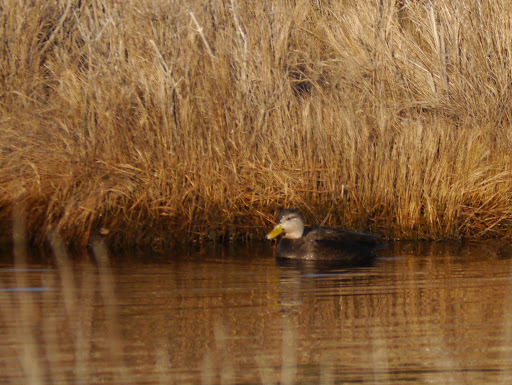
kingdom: Animalia
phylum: Chordata
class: Aves
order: Anseriformes
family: Anatidae
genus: Anas
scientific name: Anas rubripes
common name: American black duck
